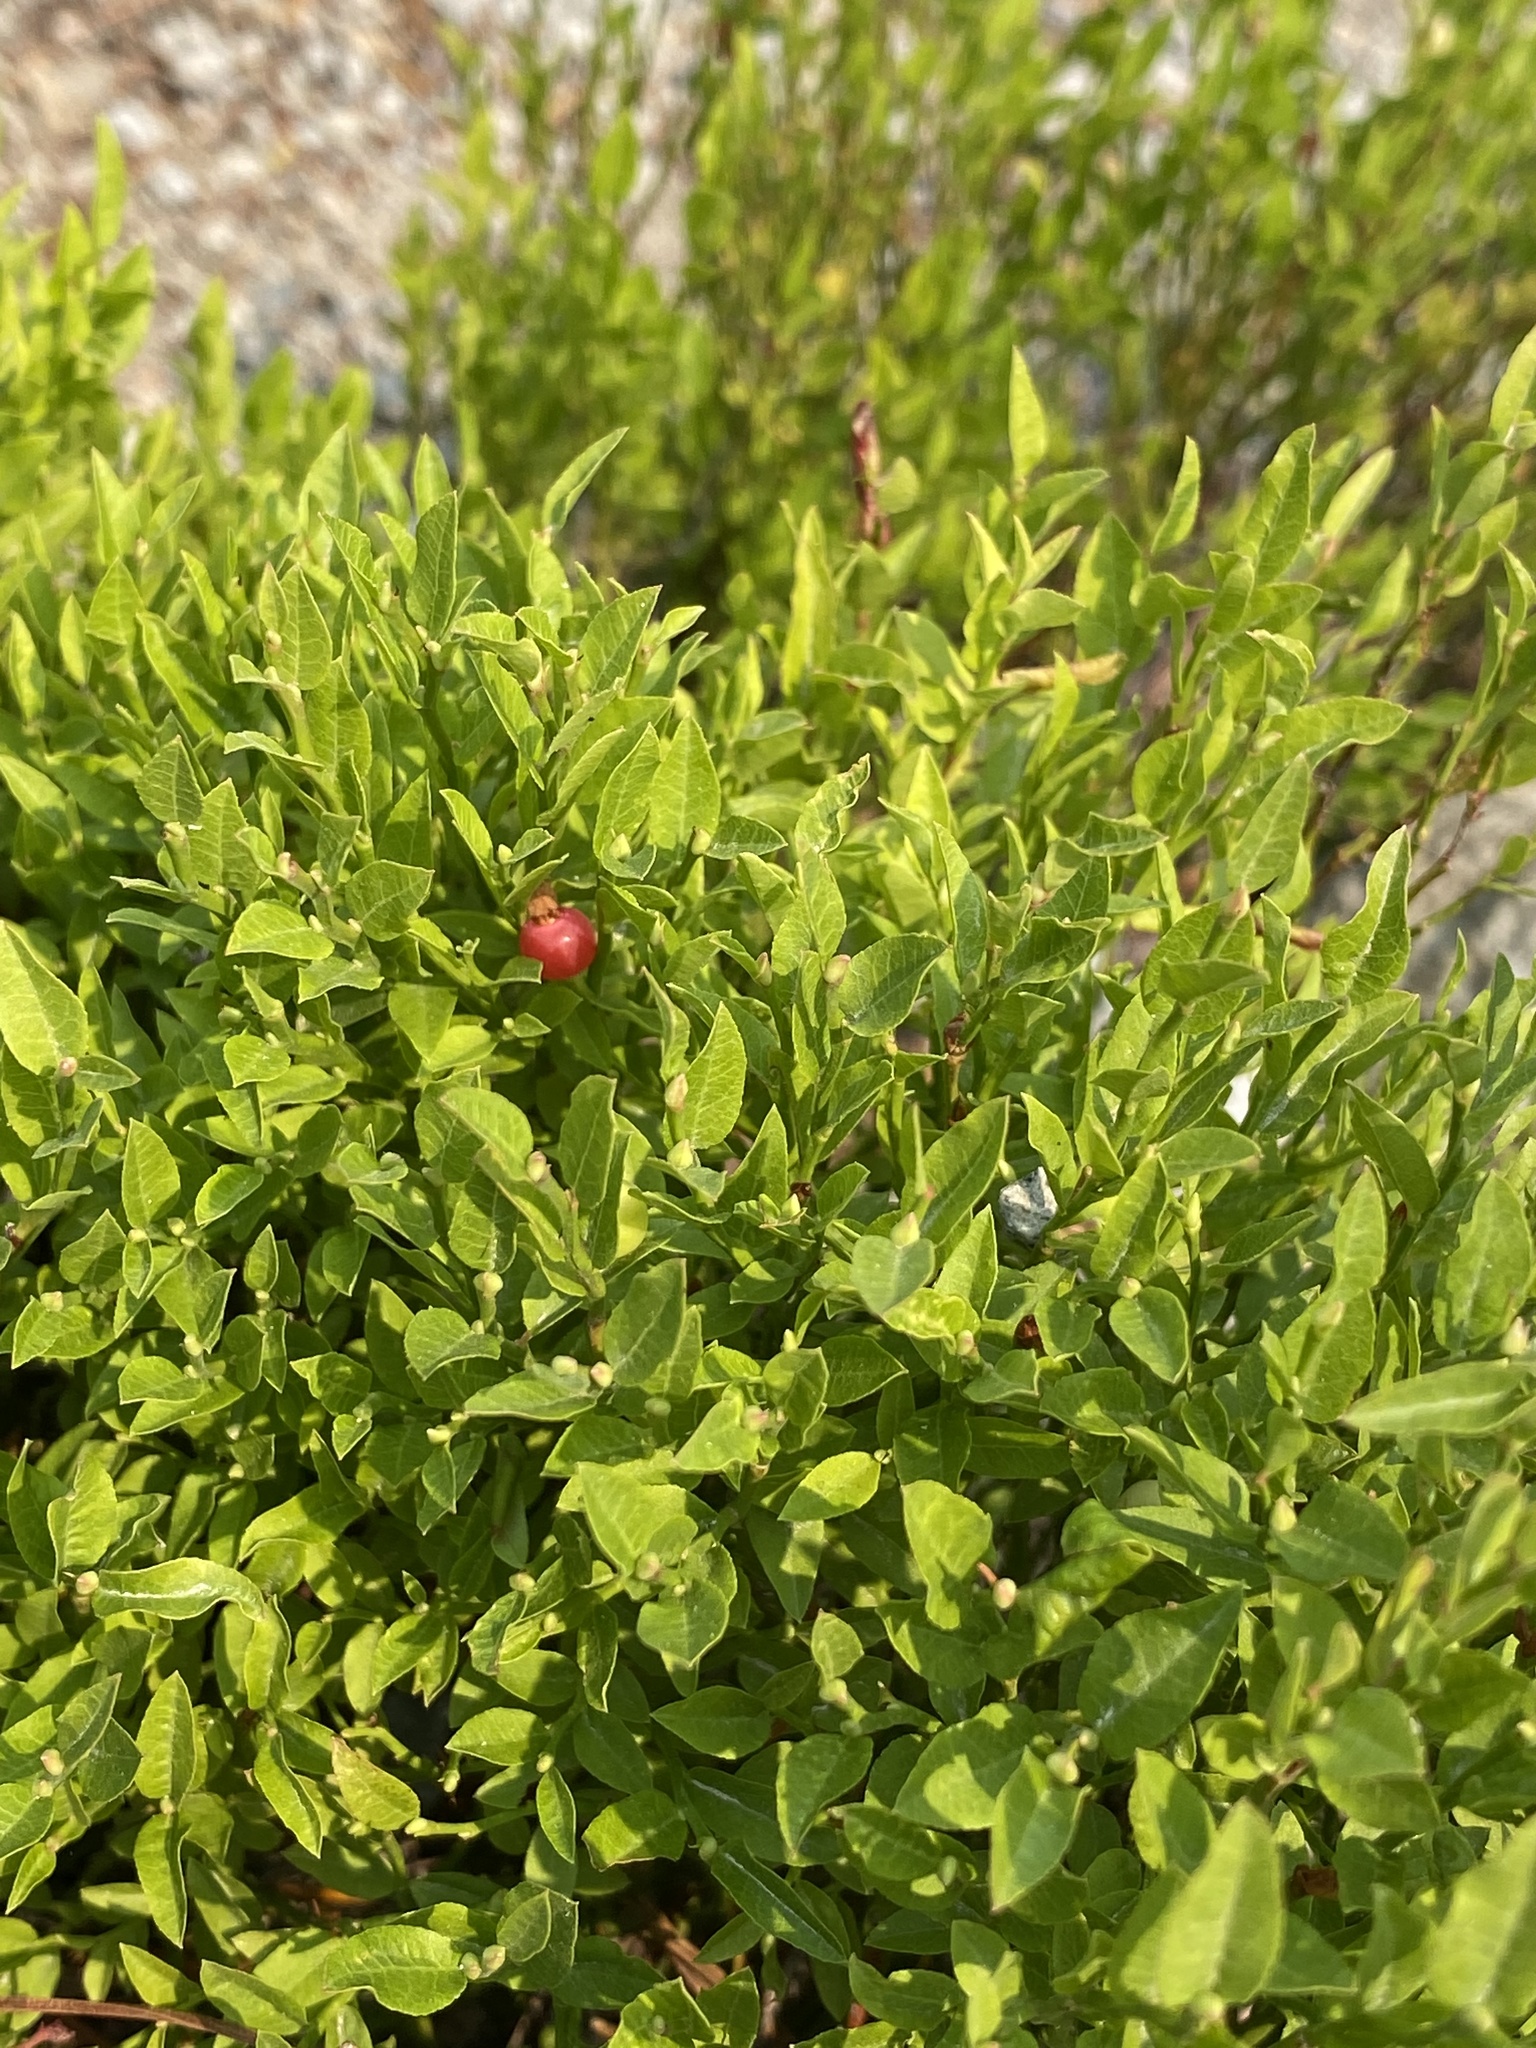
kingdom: Plantae
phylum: Tracheophyta
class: Magnoliopsida
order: Ericales
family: Ericaceae
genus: Vaccinium
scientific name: Vaccinium scoparium
